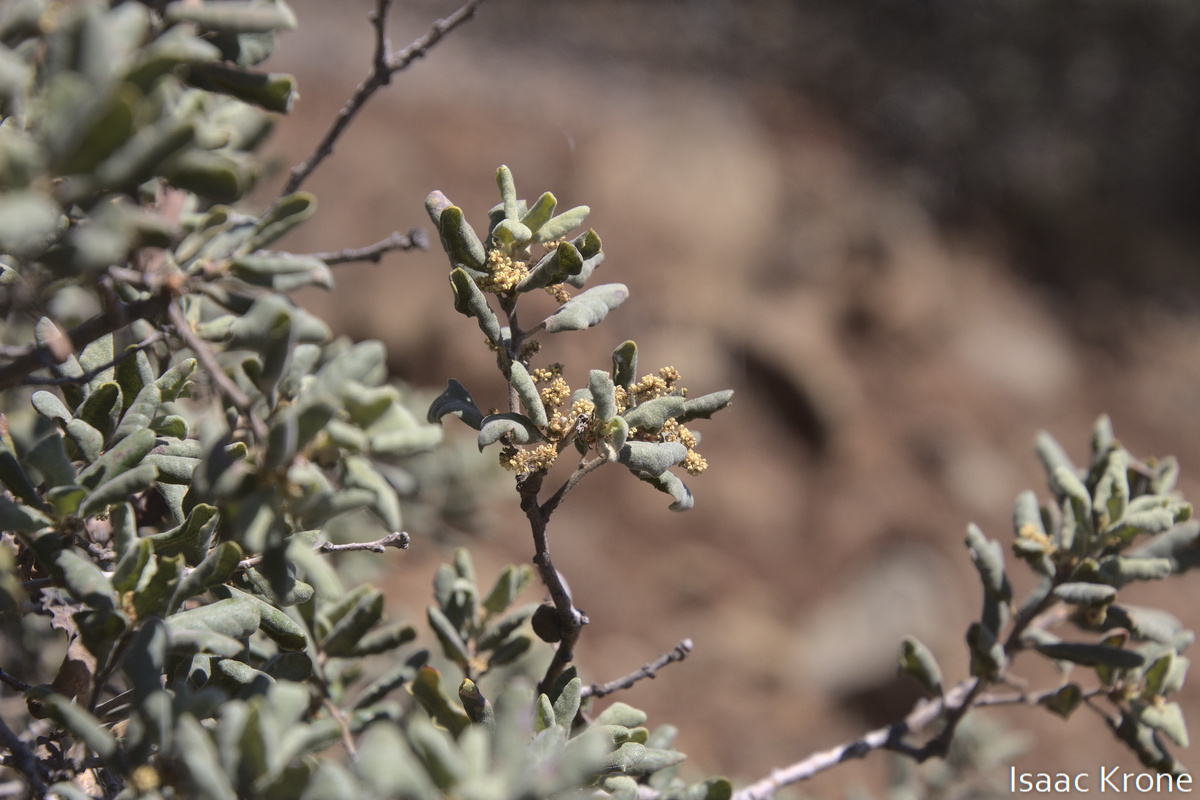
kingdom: Plantae
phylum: Tracheophyta
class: Magnoliopsida
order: Fagales
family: Fagaceae
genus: Quercus
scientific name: Quercus durata
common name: Leather oak
